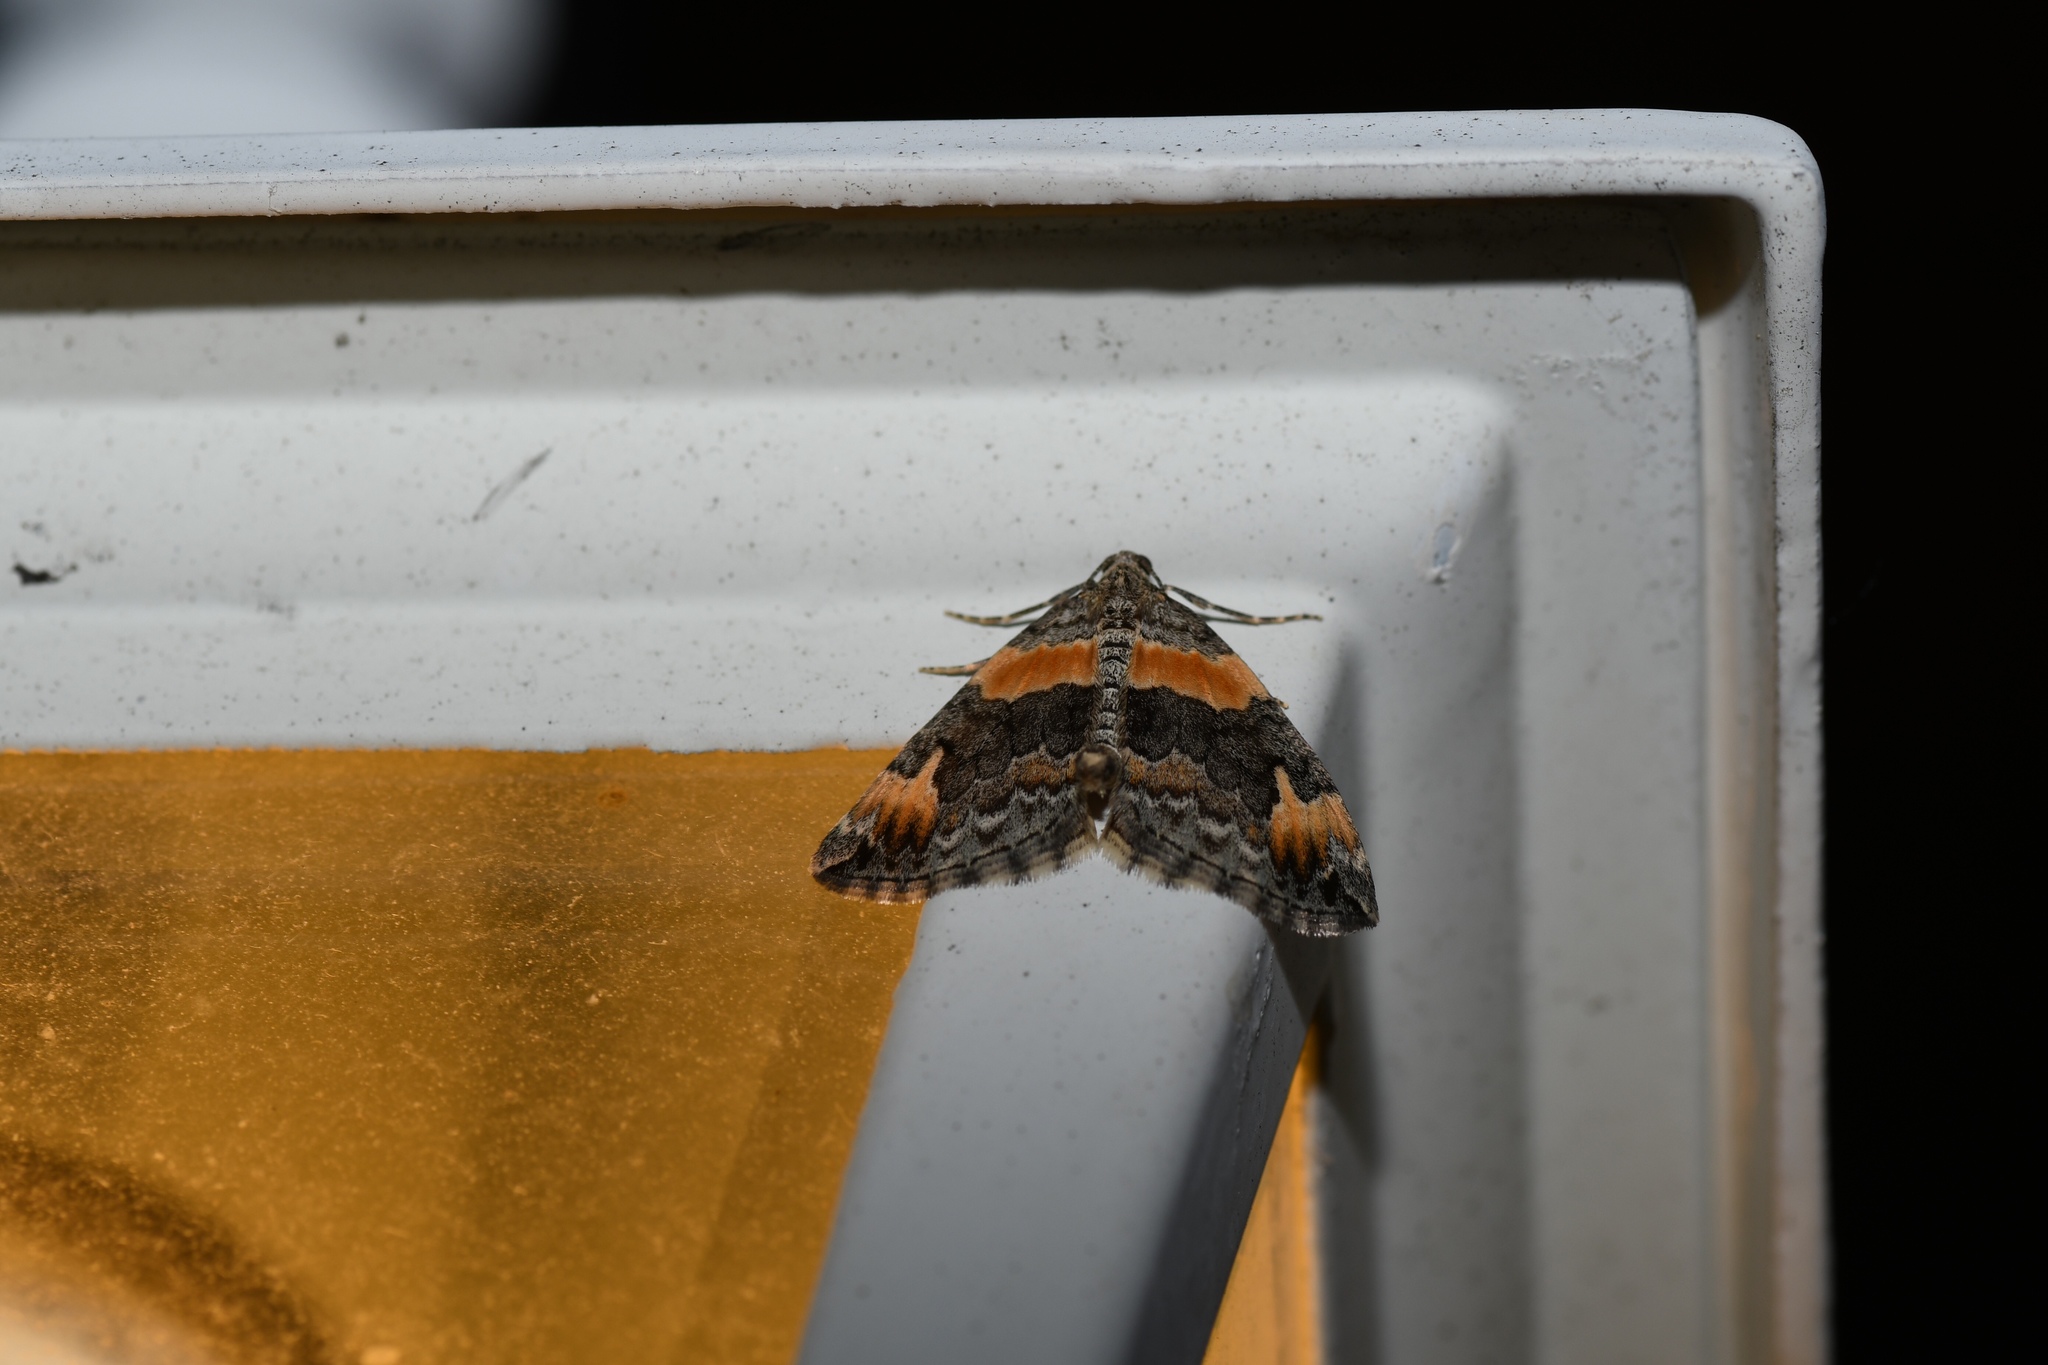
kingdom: Animalia
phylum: Arthropoda
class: Insecta
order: Lepidoptera
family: Geometridae
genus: Dysstroma
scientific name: Dysstroma hersiliata
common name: Orange-barred carpet
